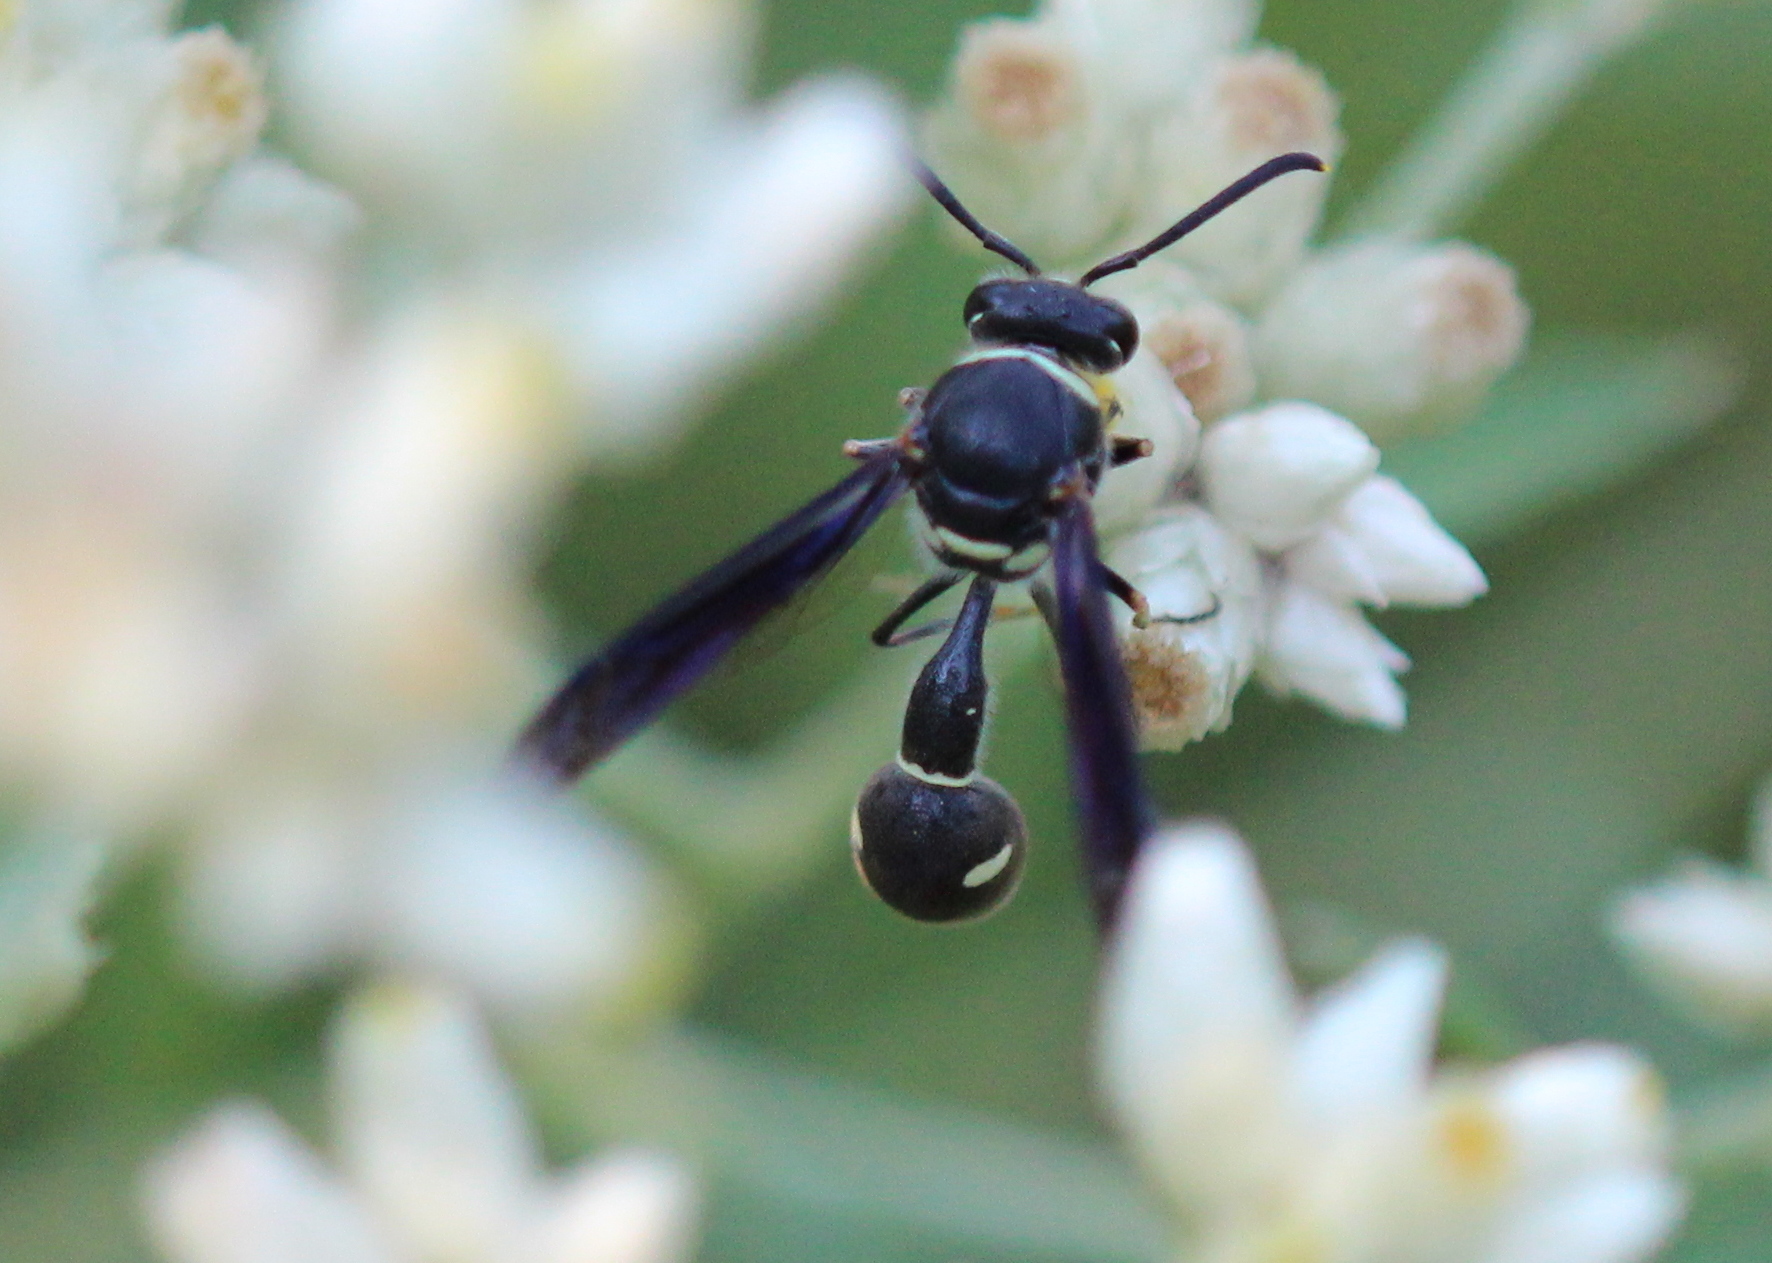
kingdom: Animalia
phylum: Arthropoda
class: Insecta
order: Hymenoptera
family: Vespidae
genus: Eumenes
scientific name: Eumenes fraternus
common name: Fraternal potter wasp
